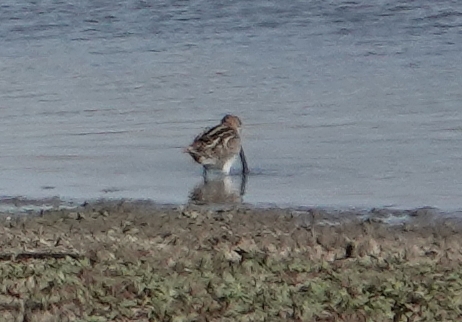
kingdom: Animalia
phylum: Chordata
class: Aves
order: Charadriiformes
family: Scolopacidae
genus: Gallinago
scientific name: Gallinago delicata
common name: Wilson's snipe
